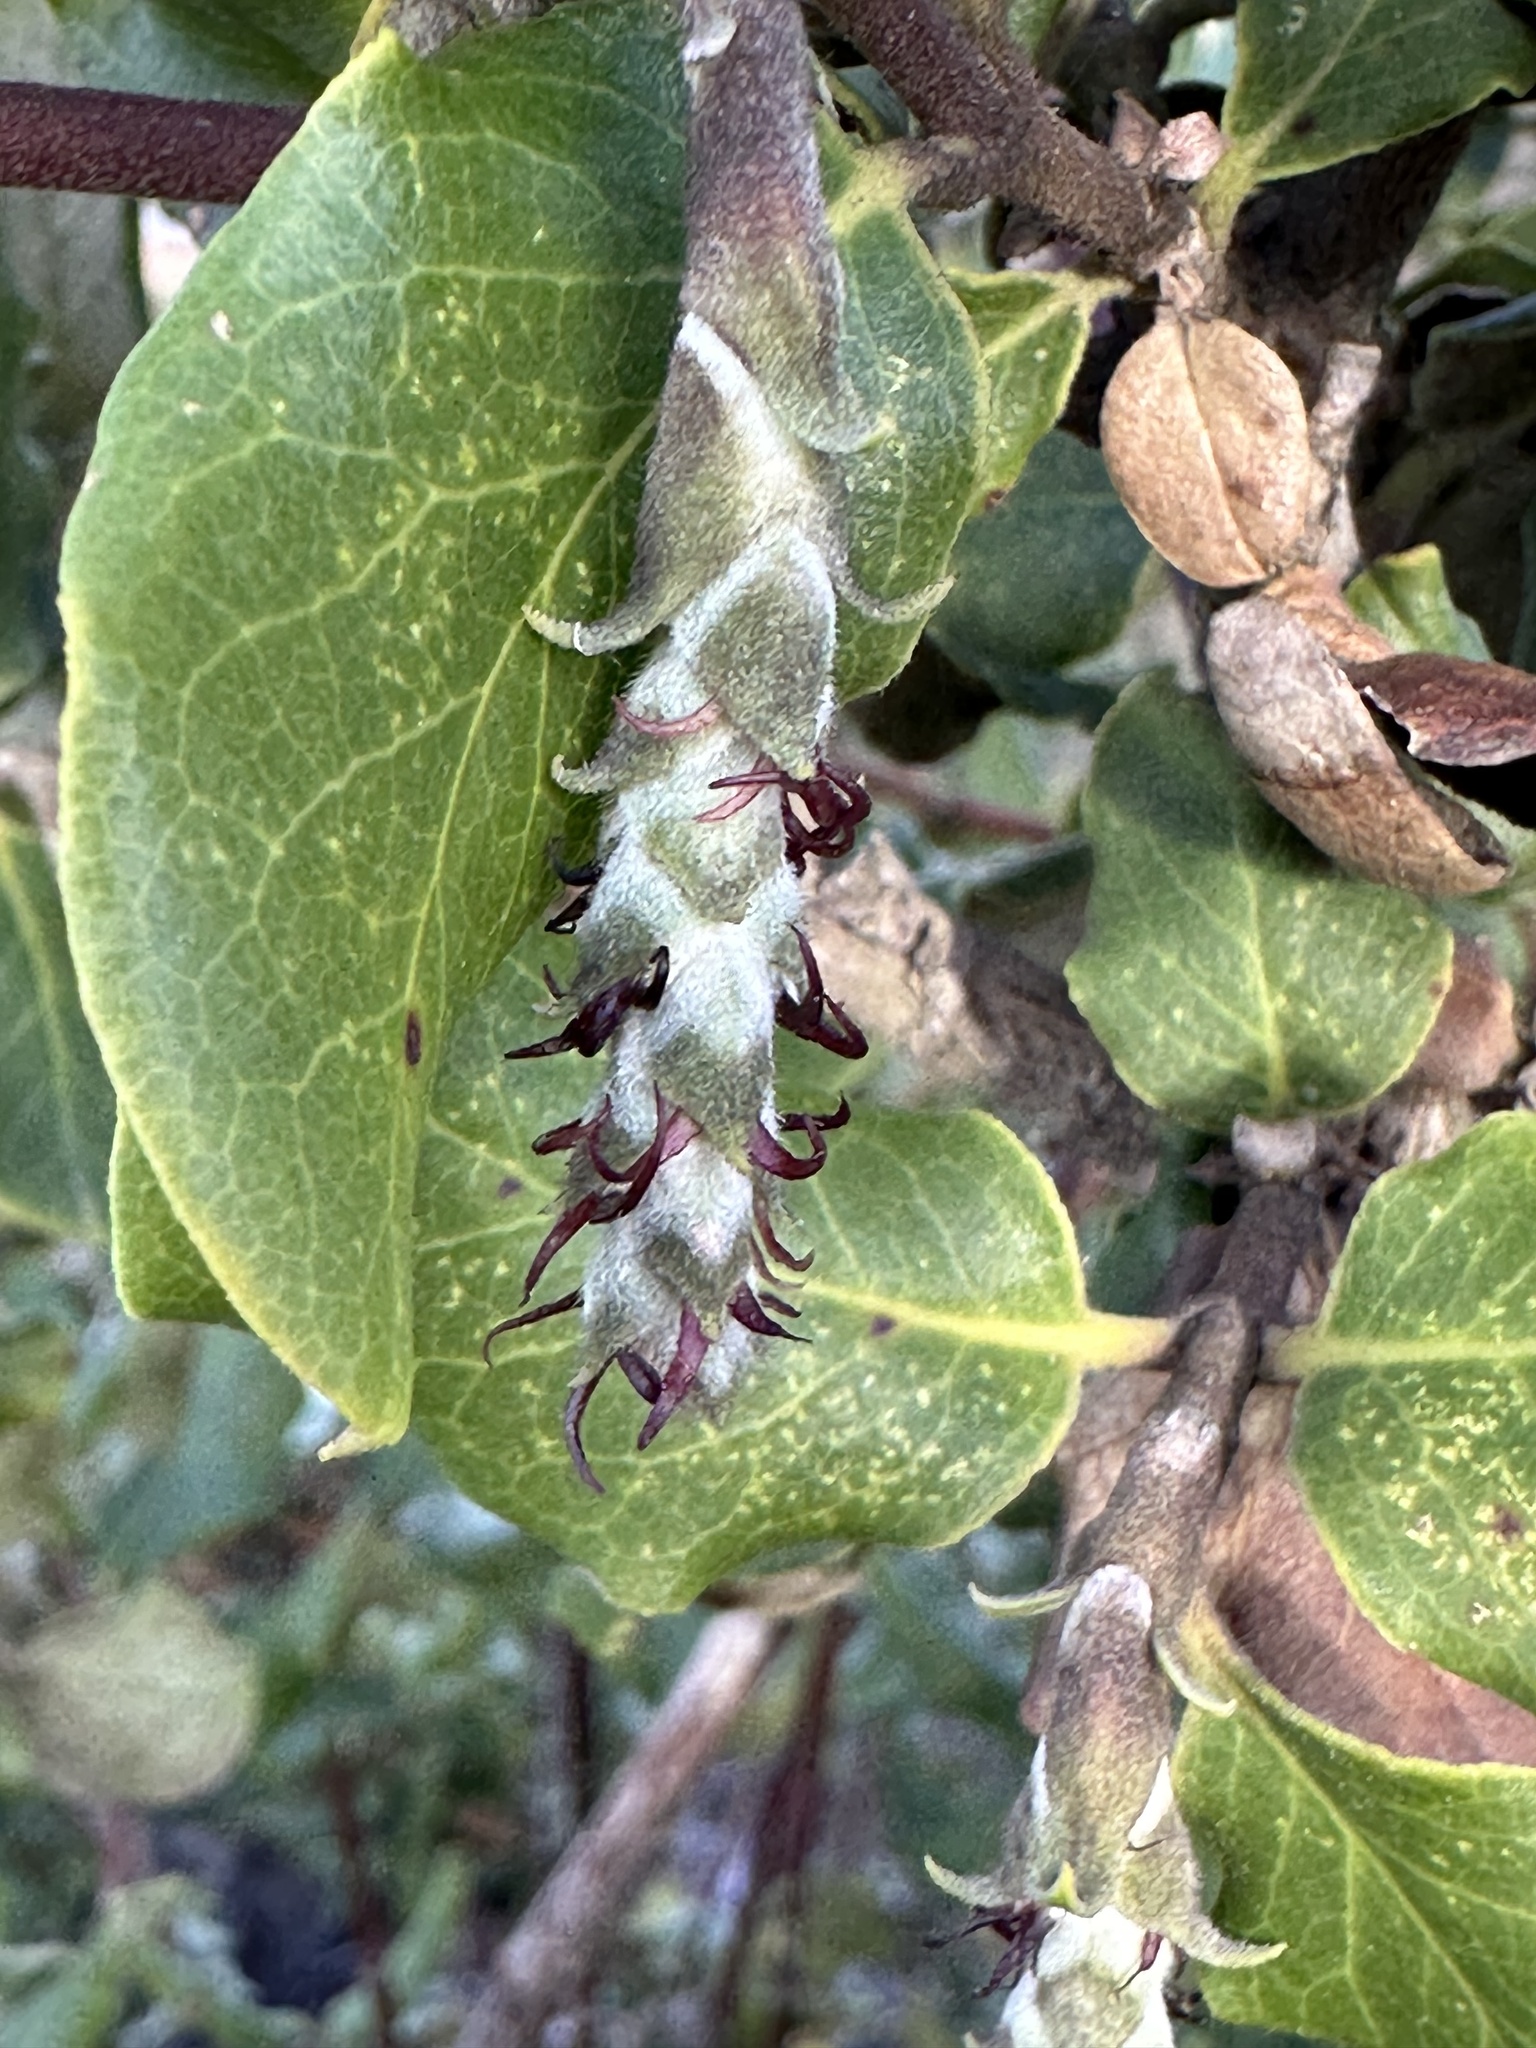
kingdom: Plantae
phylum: Tracheophyta
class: Magnoliopsida
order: Garryales
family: Garryaceae
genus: Garrya
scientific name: Garrya elliptica
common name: Silk-tassel
